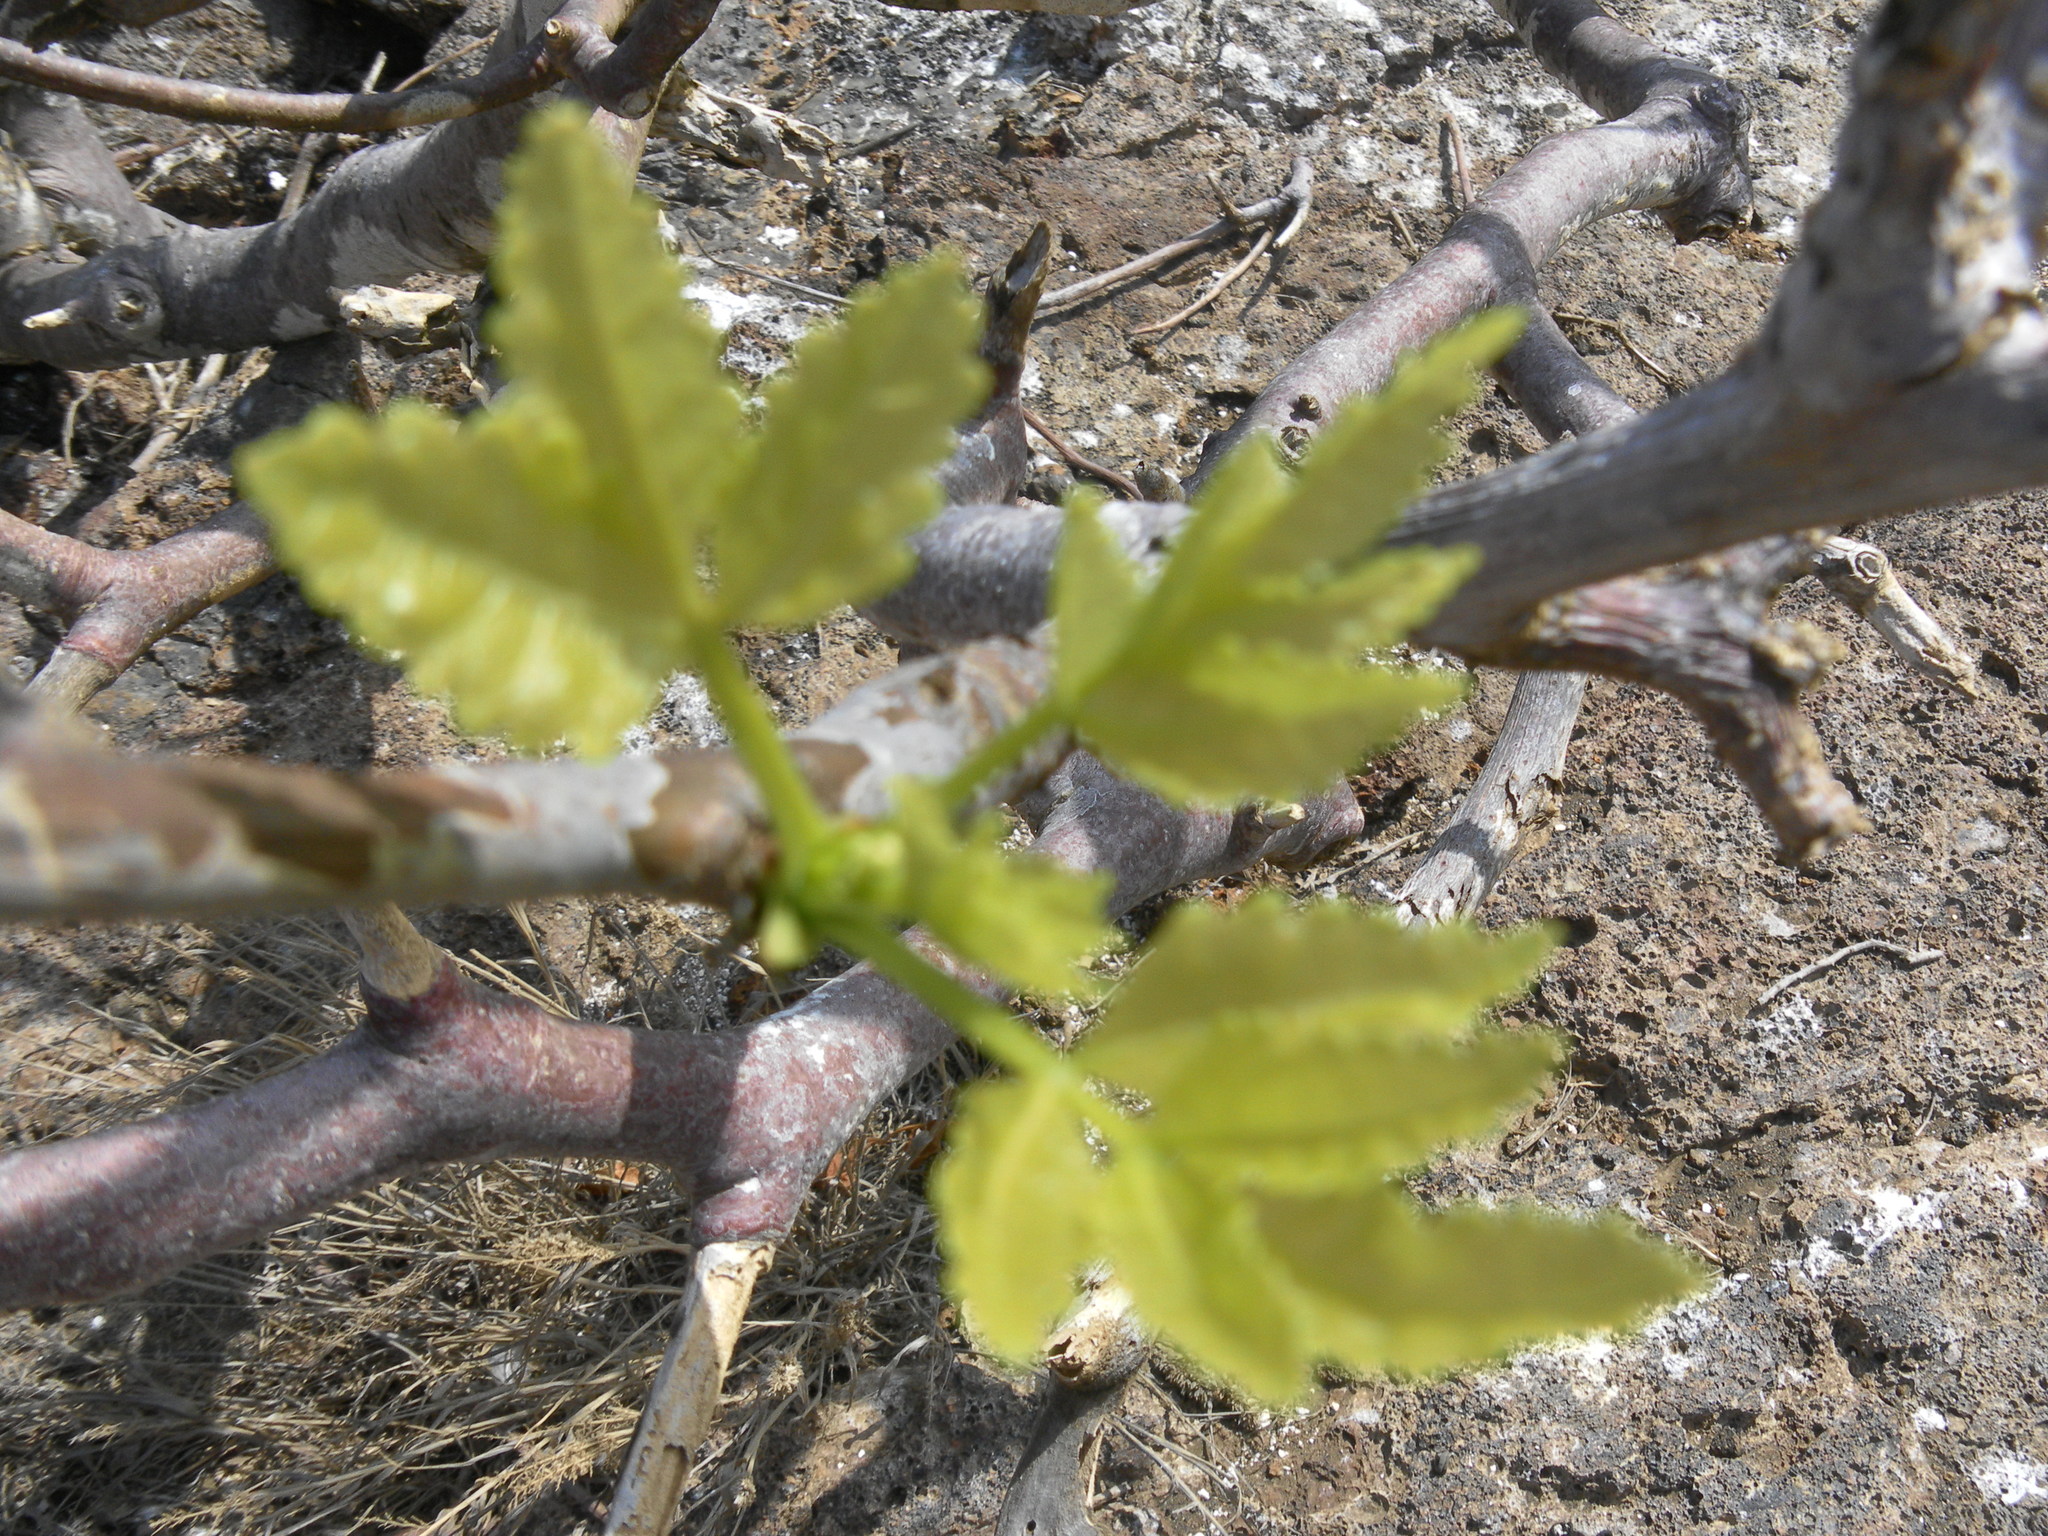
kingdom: Plantae
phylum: Tracheophyta
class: Magnoliopsida
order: Sapindales
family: Burseraceae
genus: Bursera
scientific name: Bursera graveolens
